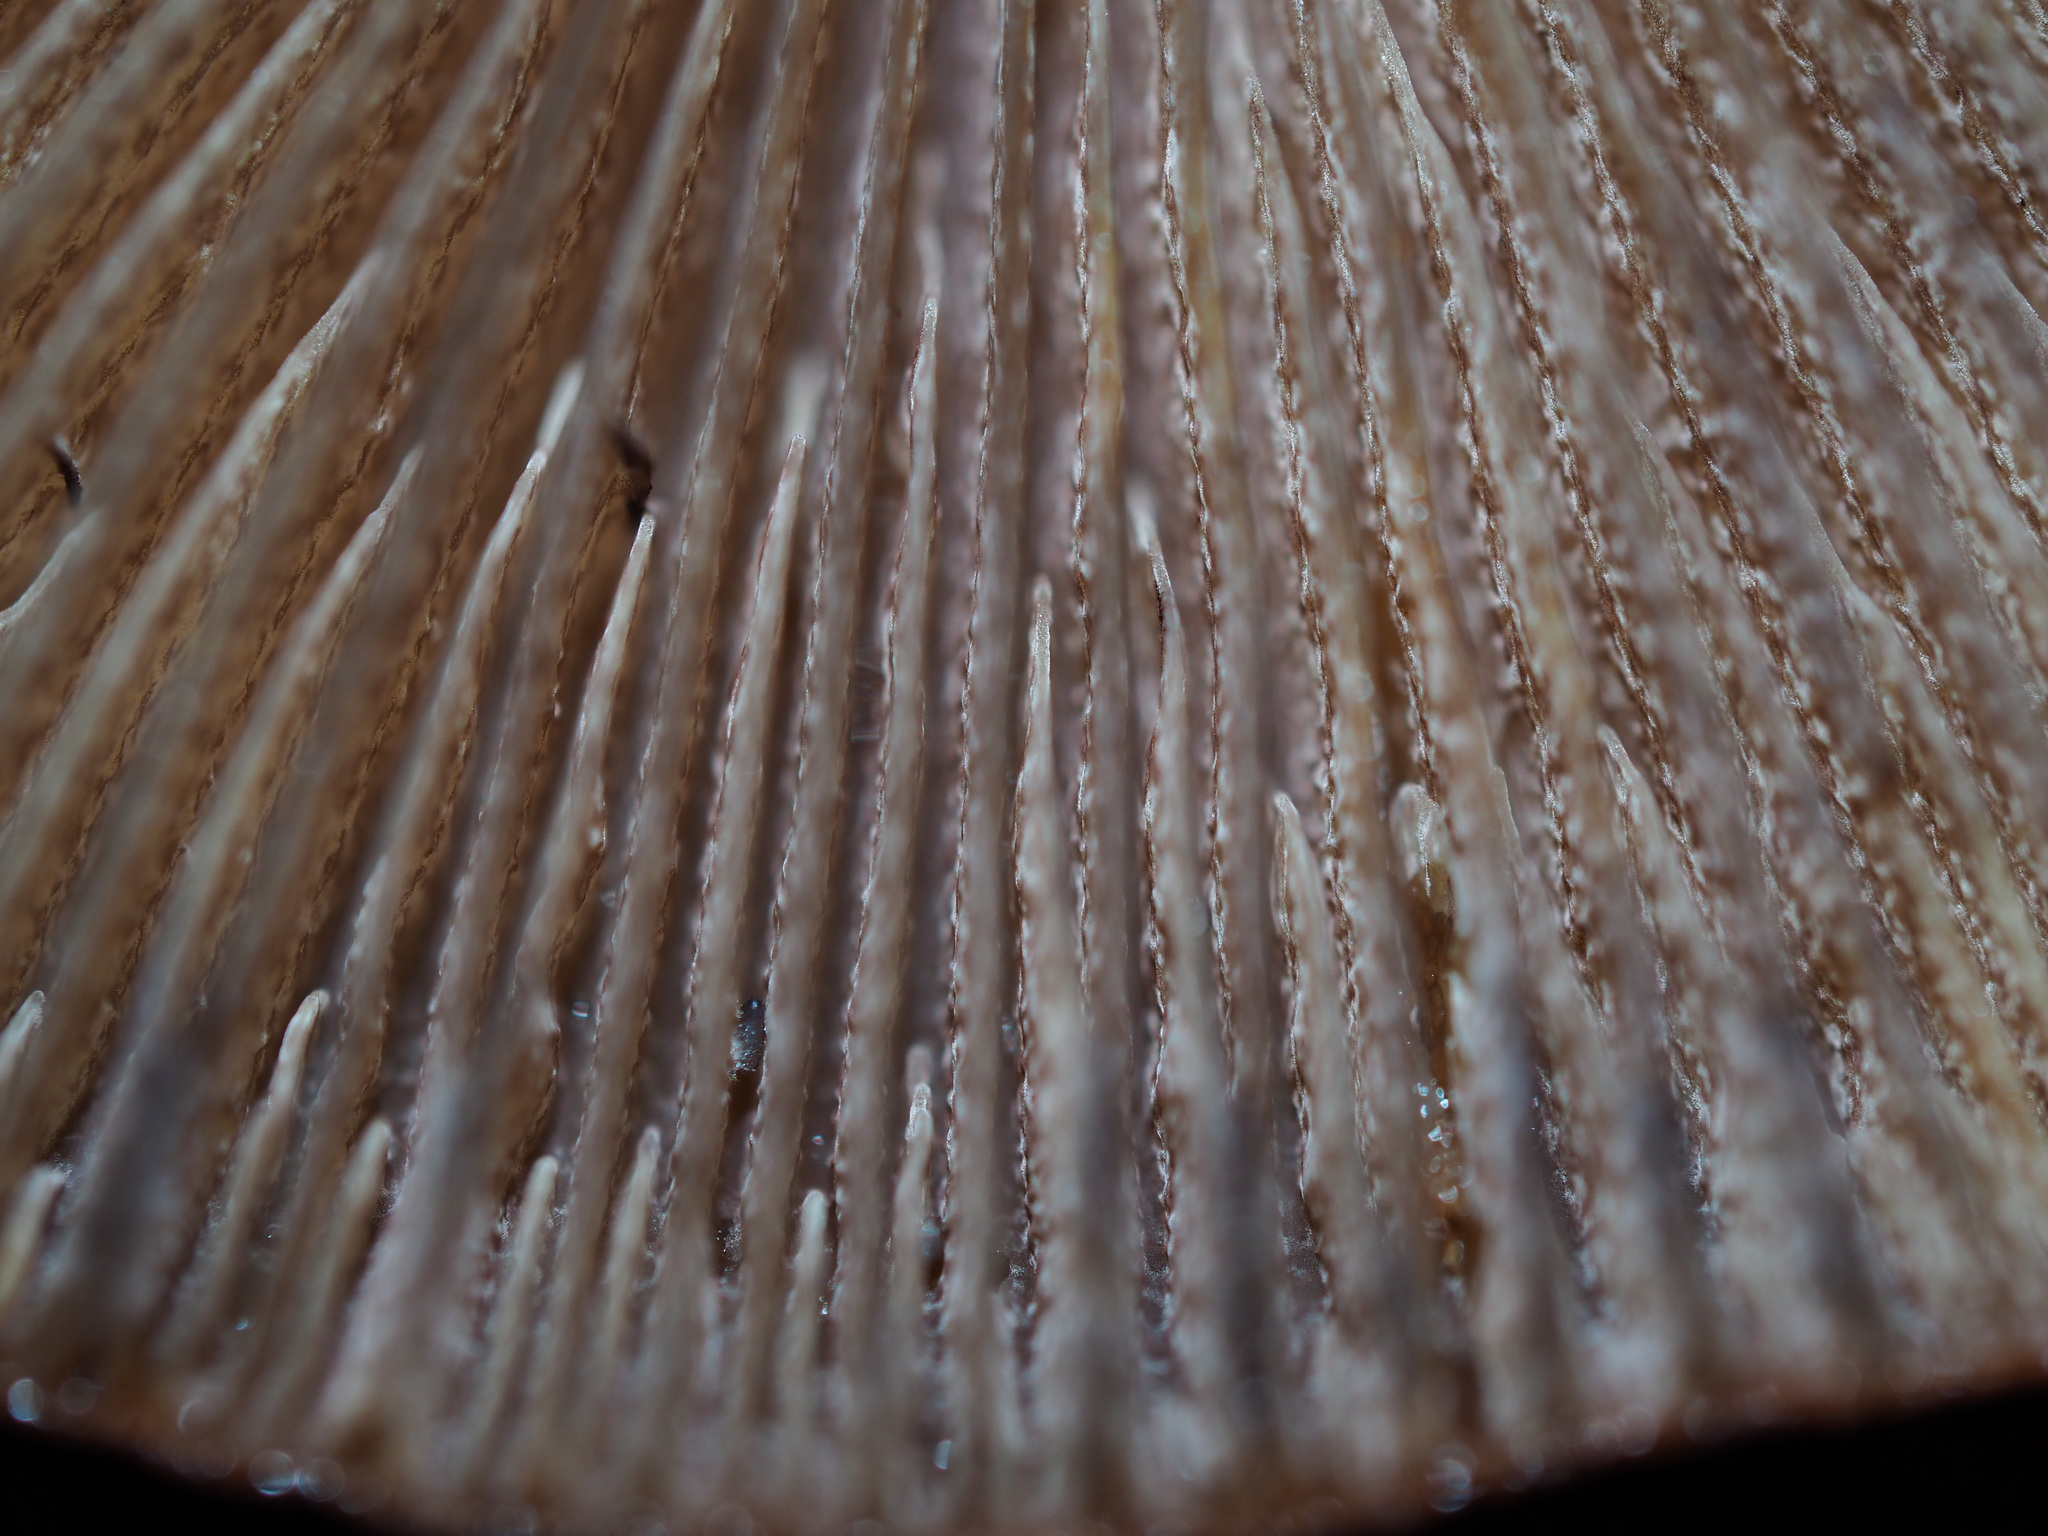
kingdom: Fungi
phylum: Basidiomycota
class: Agaricomycetes
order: Agaricales
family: Strophariaceae
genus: Hypholoma
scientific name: Hypholoma brunneum
